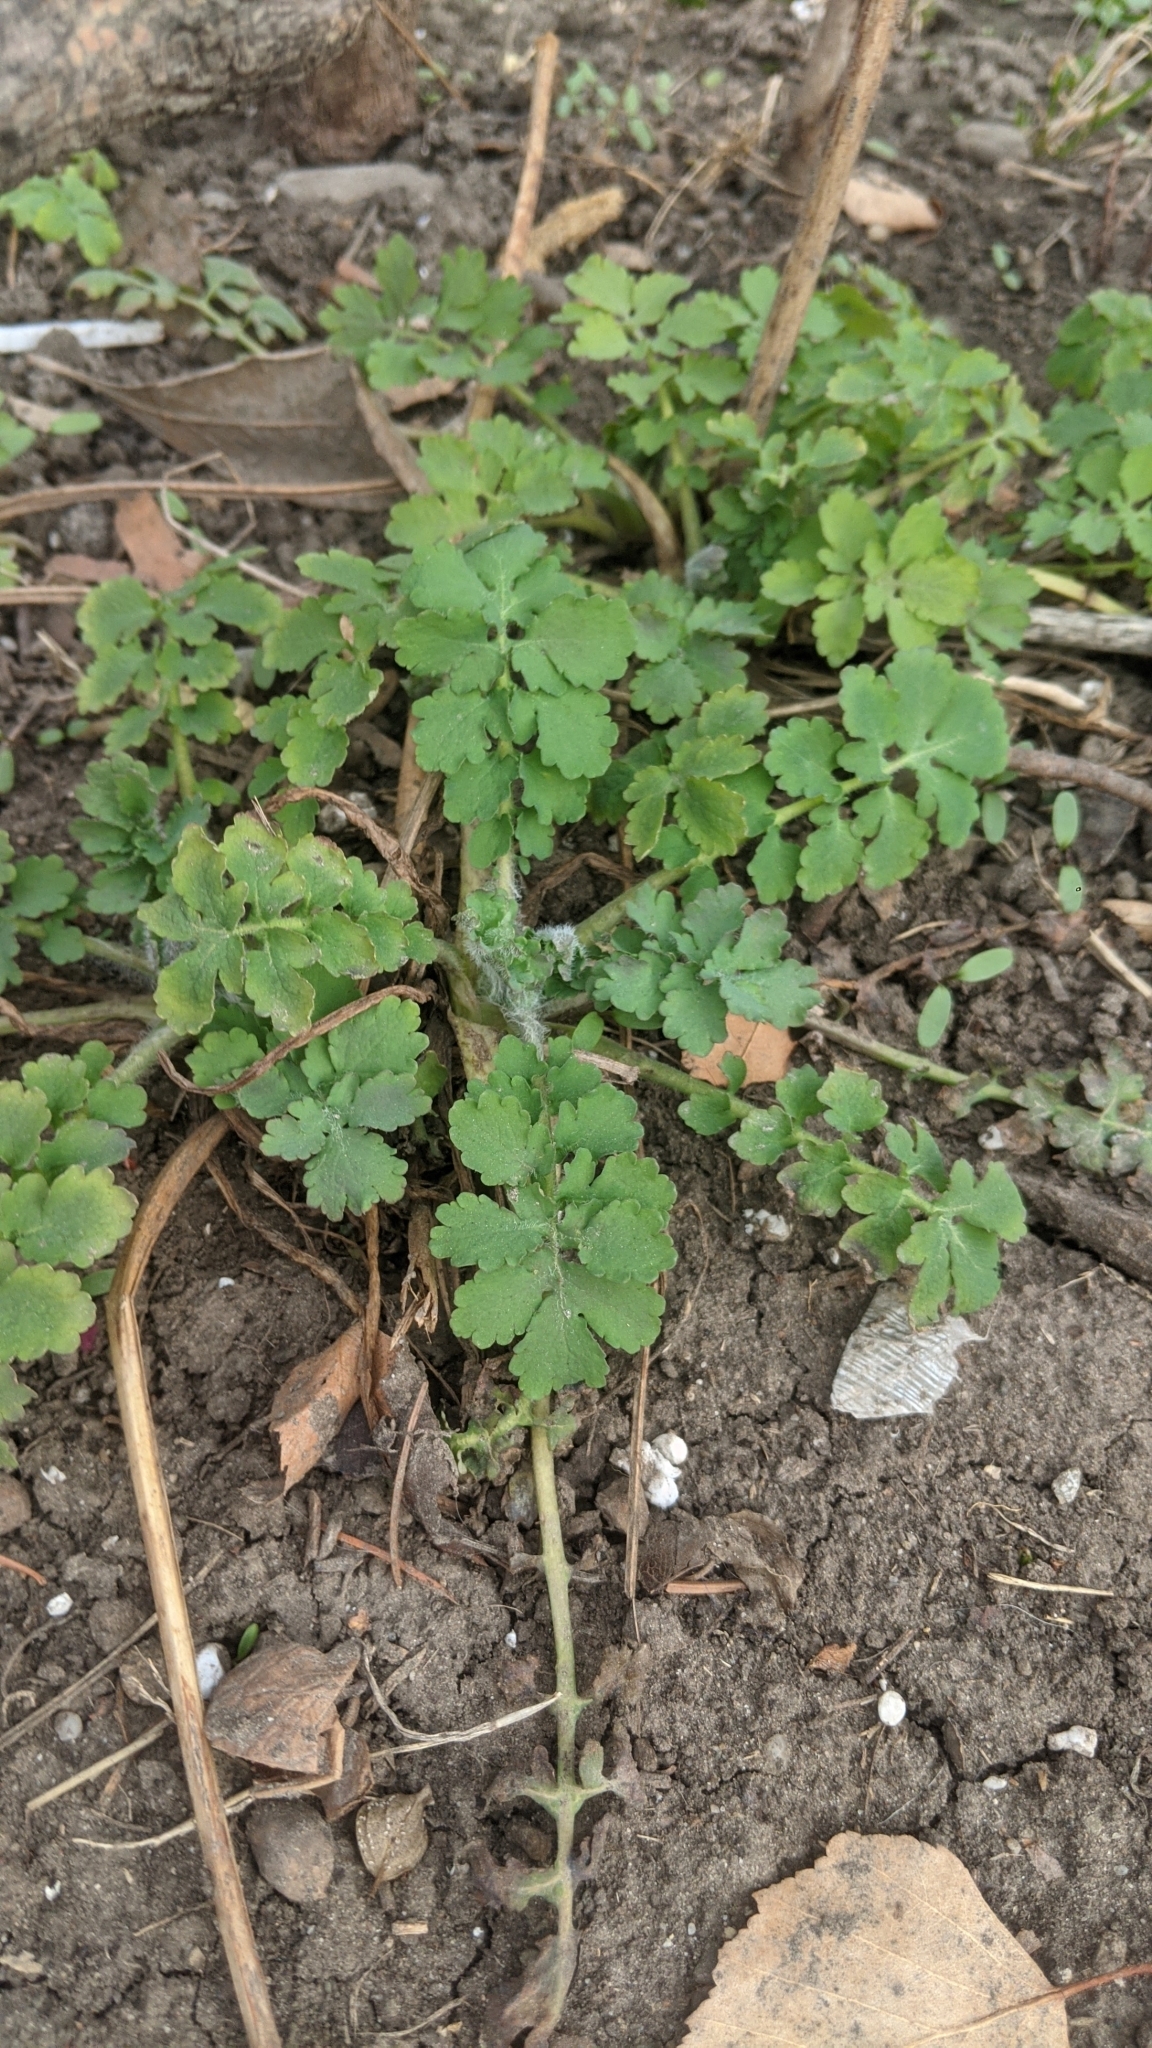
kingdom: Plantae
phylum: Tracheophyta
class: Magnoliopsida
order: Ranunculales
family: Papaveraceae
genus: Chelidonium
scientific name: Chelidonium majus
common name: Greater celandine
